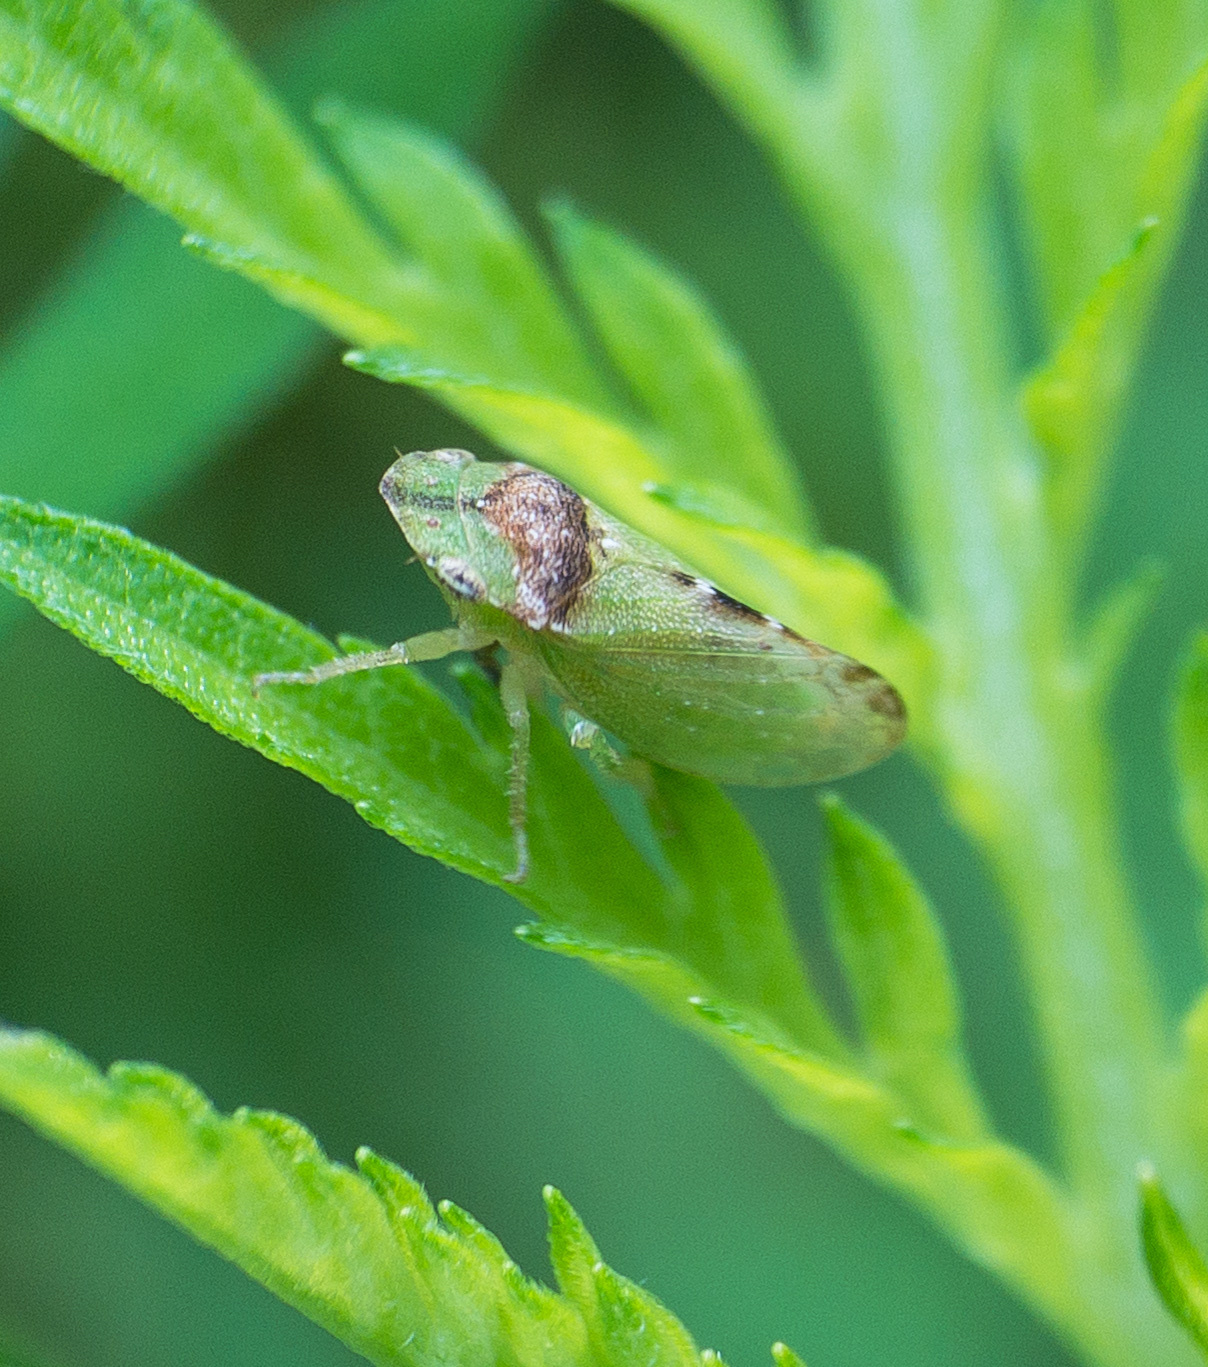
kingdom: Animalia
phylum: Arthropoda
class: Insecta
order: Hemiptera
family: Cicadellidae
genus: Xerophloea
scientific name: Xerophloea viridis
